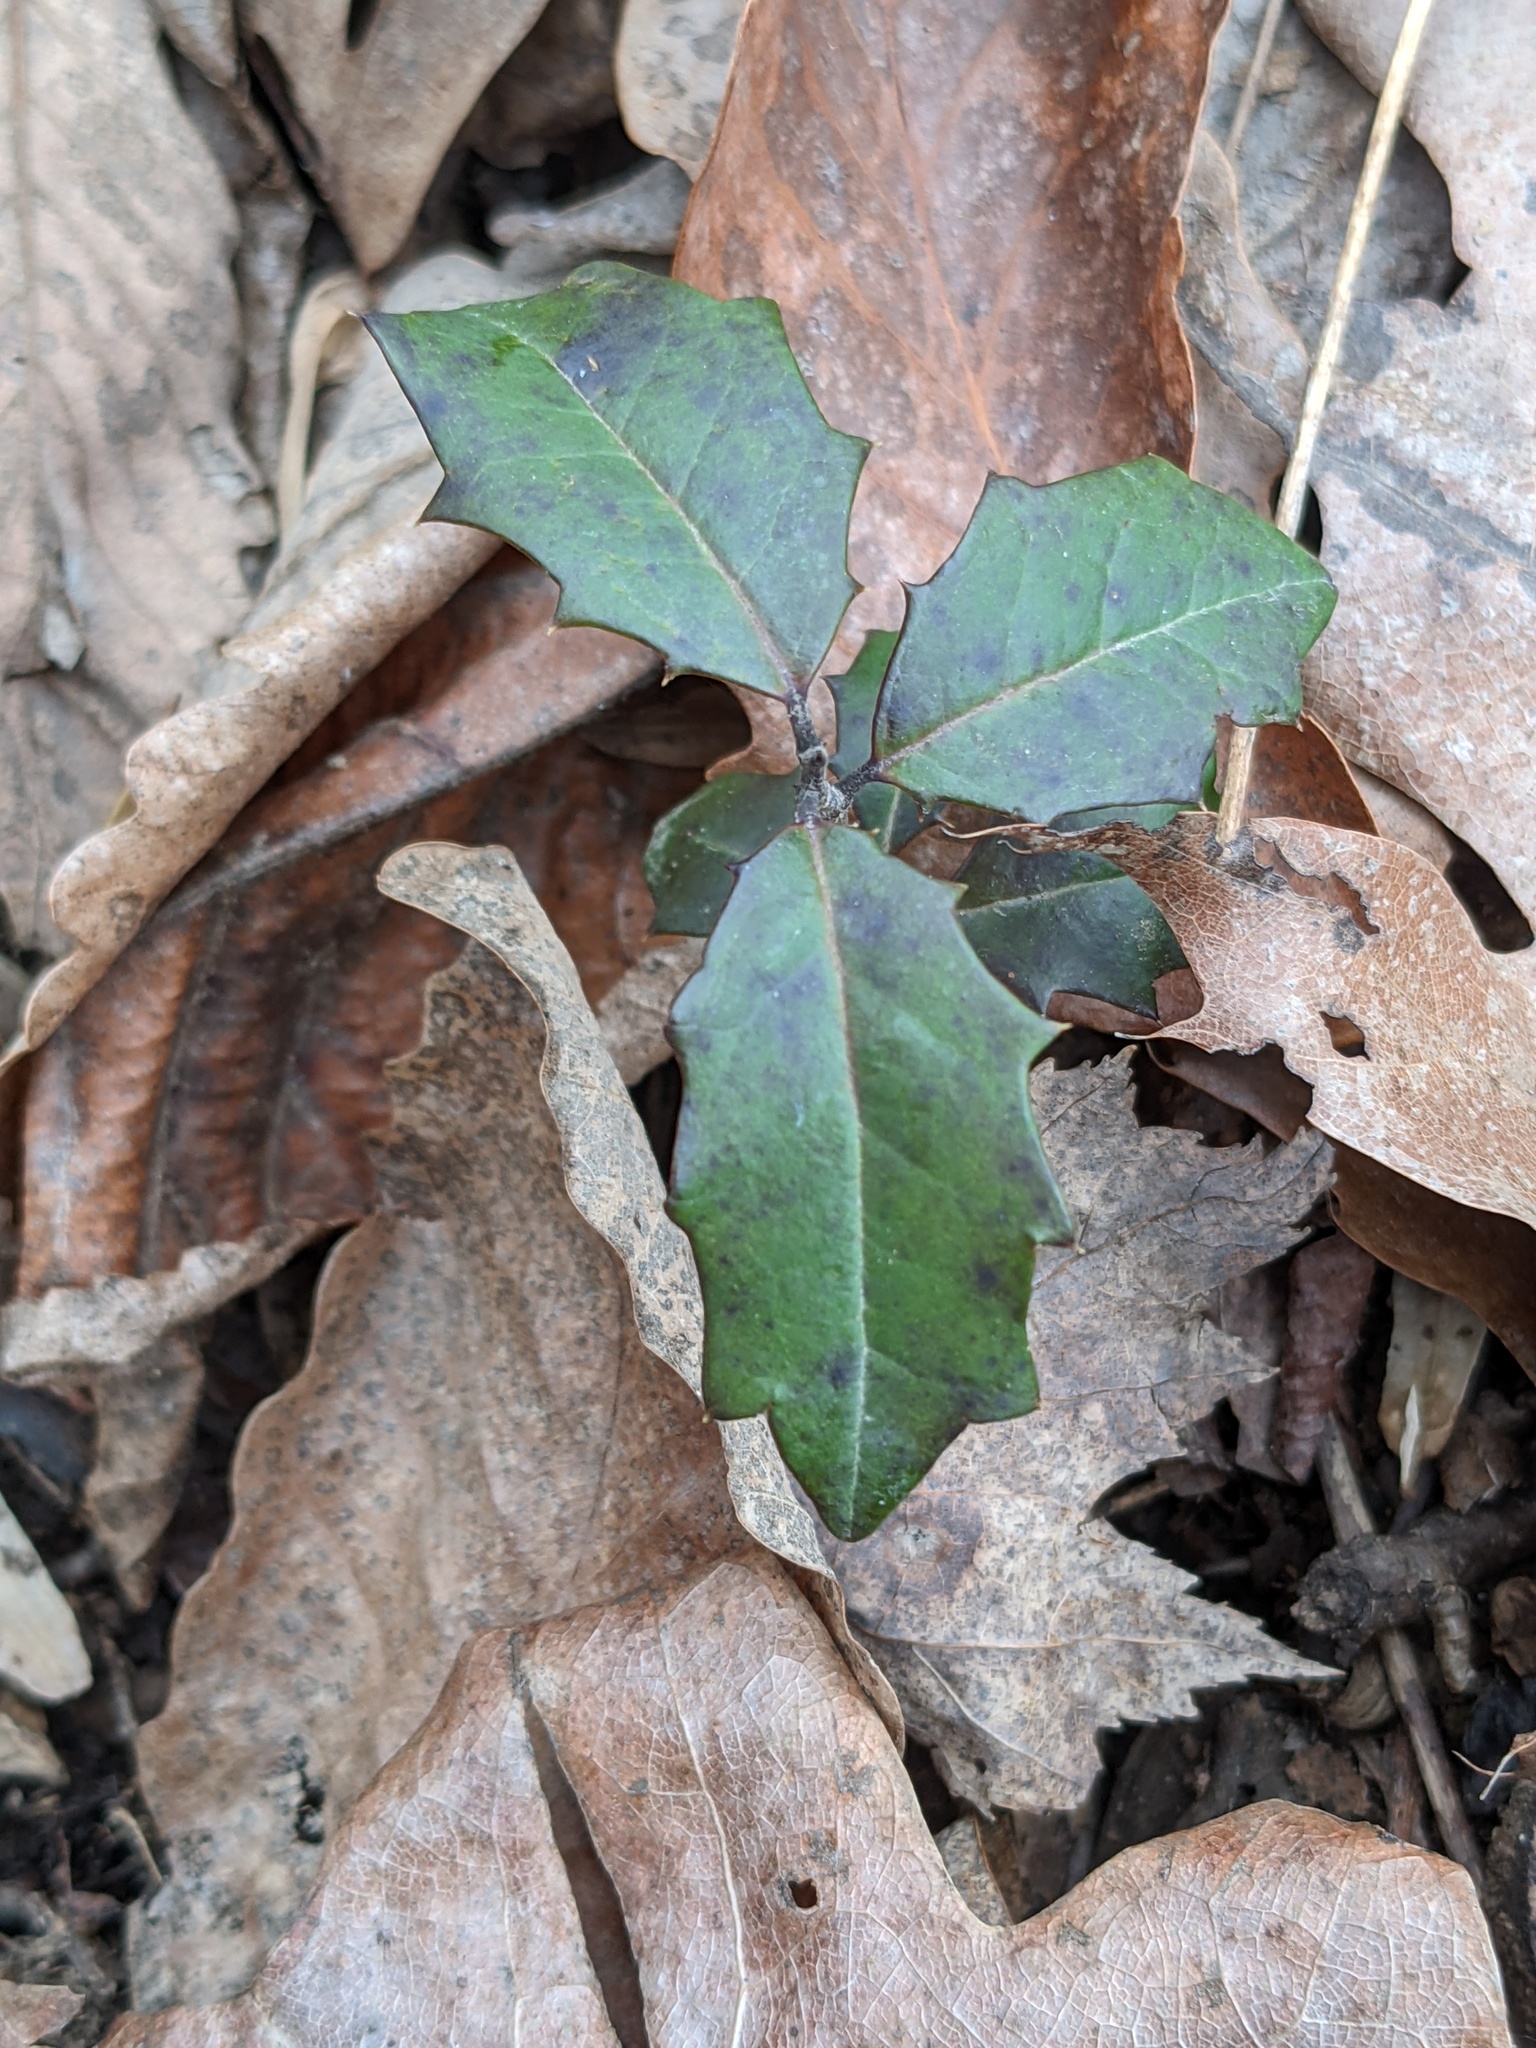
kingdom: Plantae
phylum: Tracheophyta
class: Magnoliopsida
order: Aquifoliales
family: Aquifoliaceae
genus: Ilex
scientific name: Ilex opaca
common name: American holly
